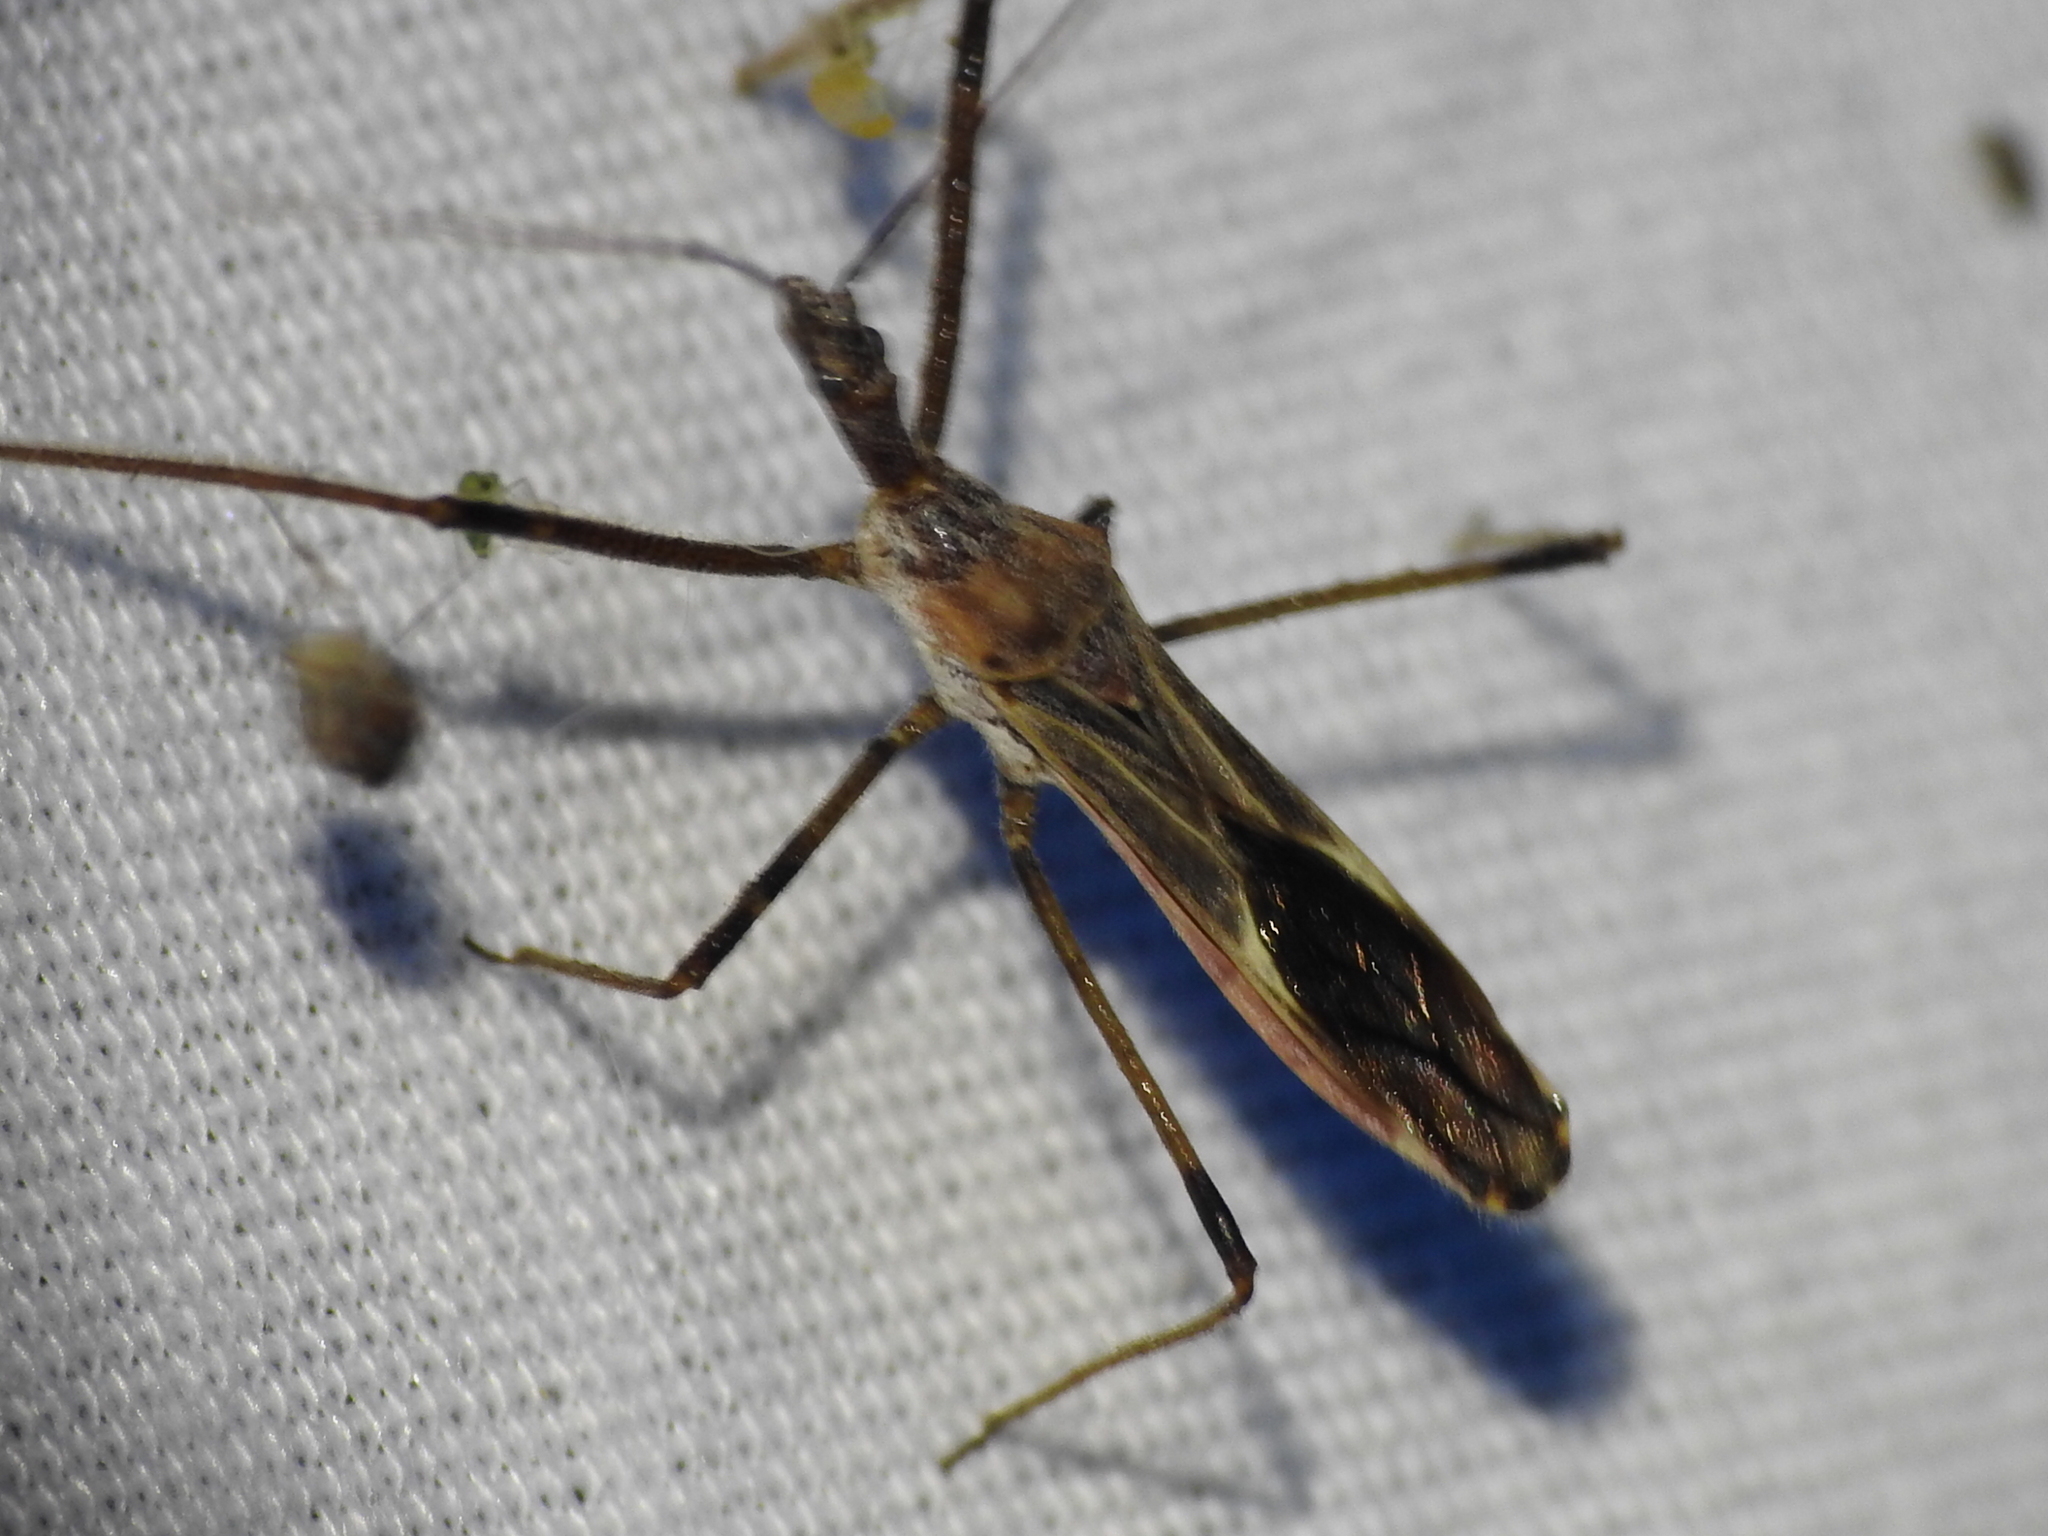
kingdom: Animalia
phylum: Arthropoda
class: Insecta
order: Hemiptera
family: Reduviidae
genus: Zelus
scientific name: Zelus tetracanthus
